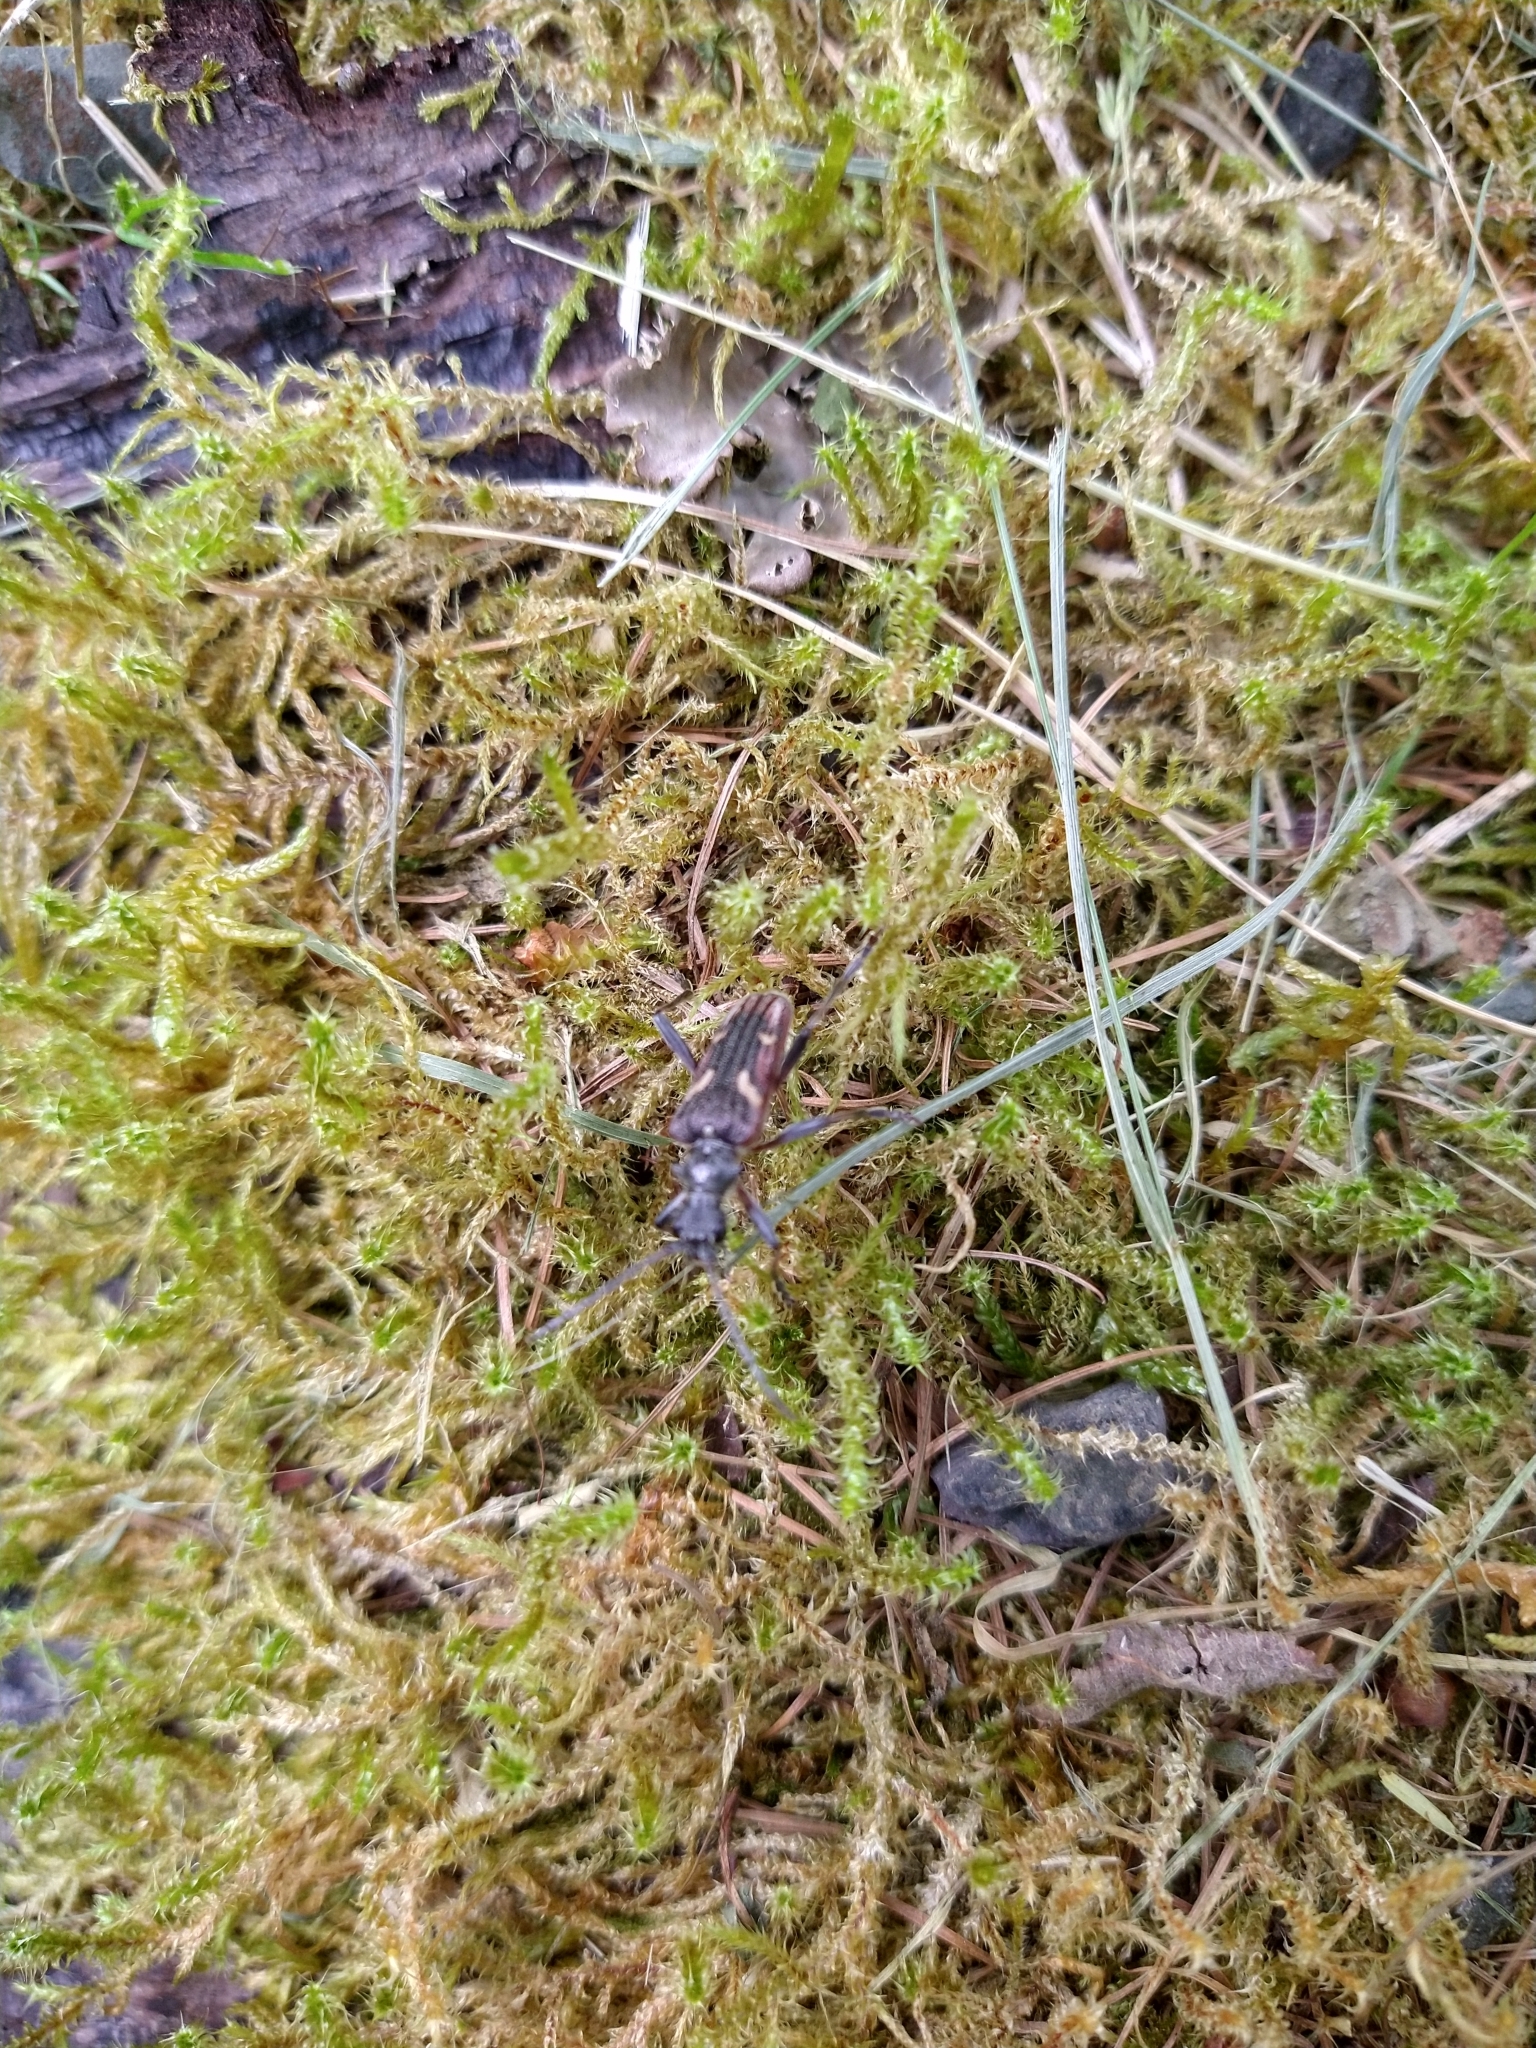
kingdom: Animalia
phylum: Arthropoda
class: Insecta
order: Coleoptera
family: Cerambycidae
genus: Rhagium
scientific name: Rhagium bifasciatum
